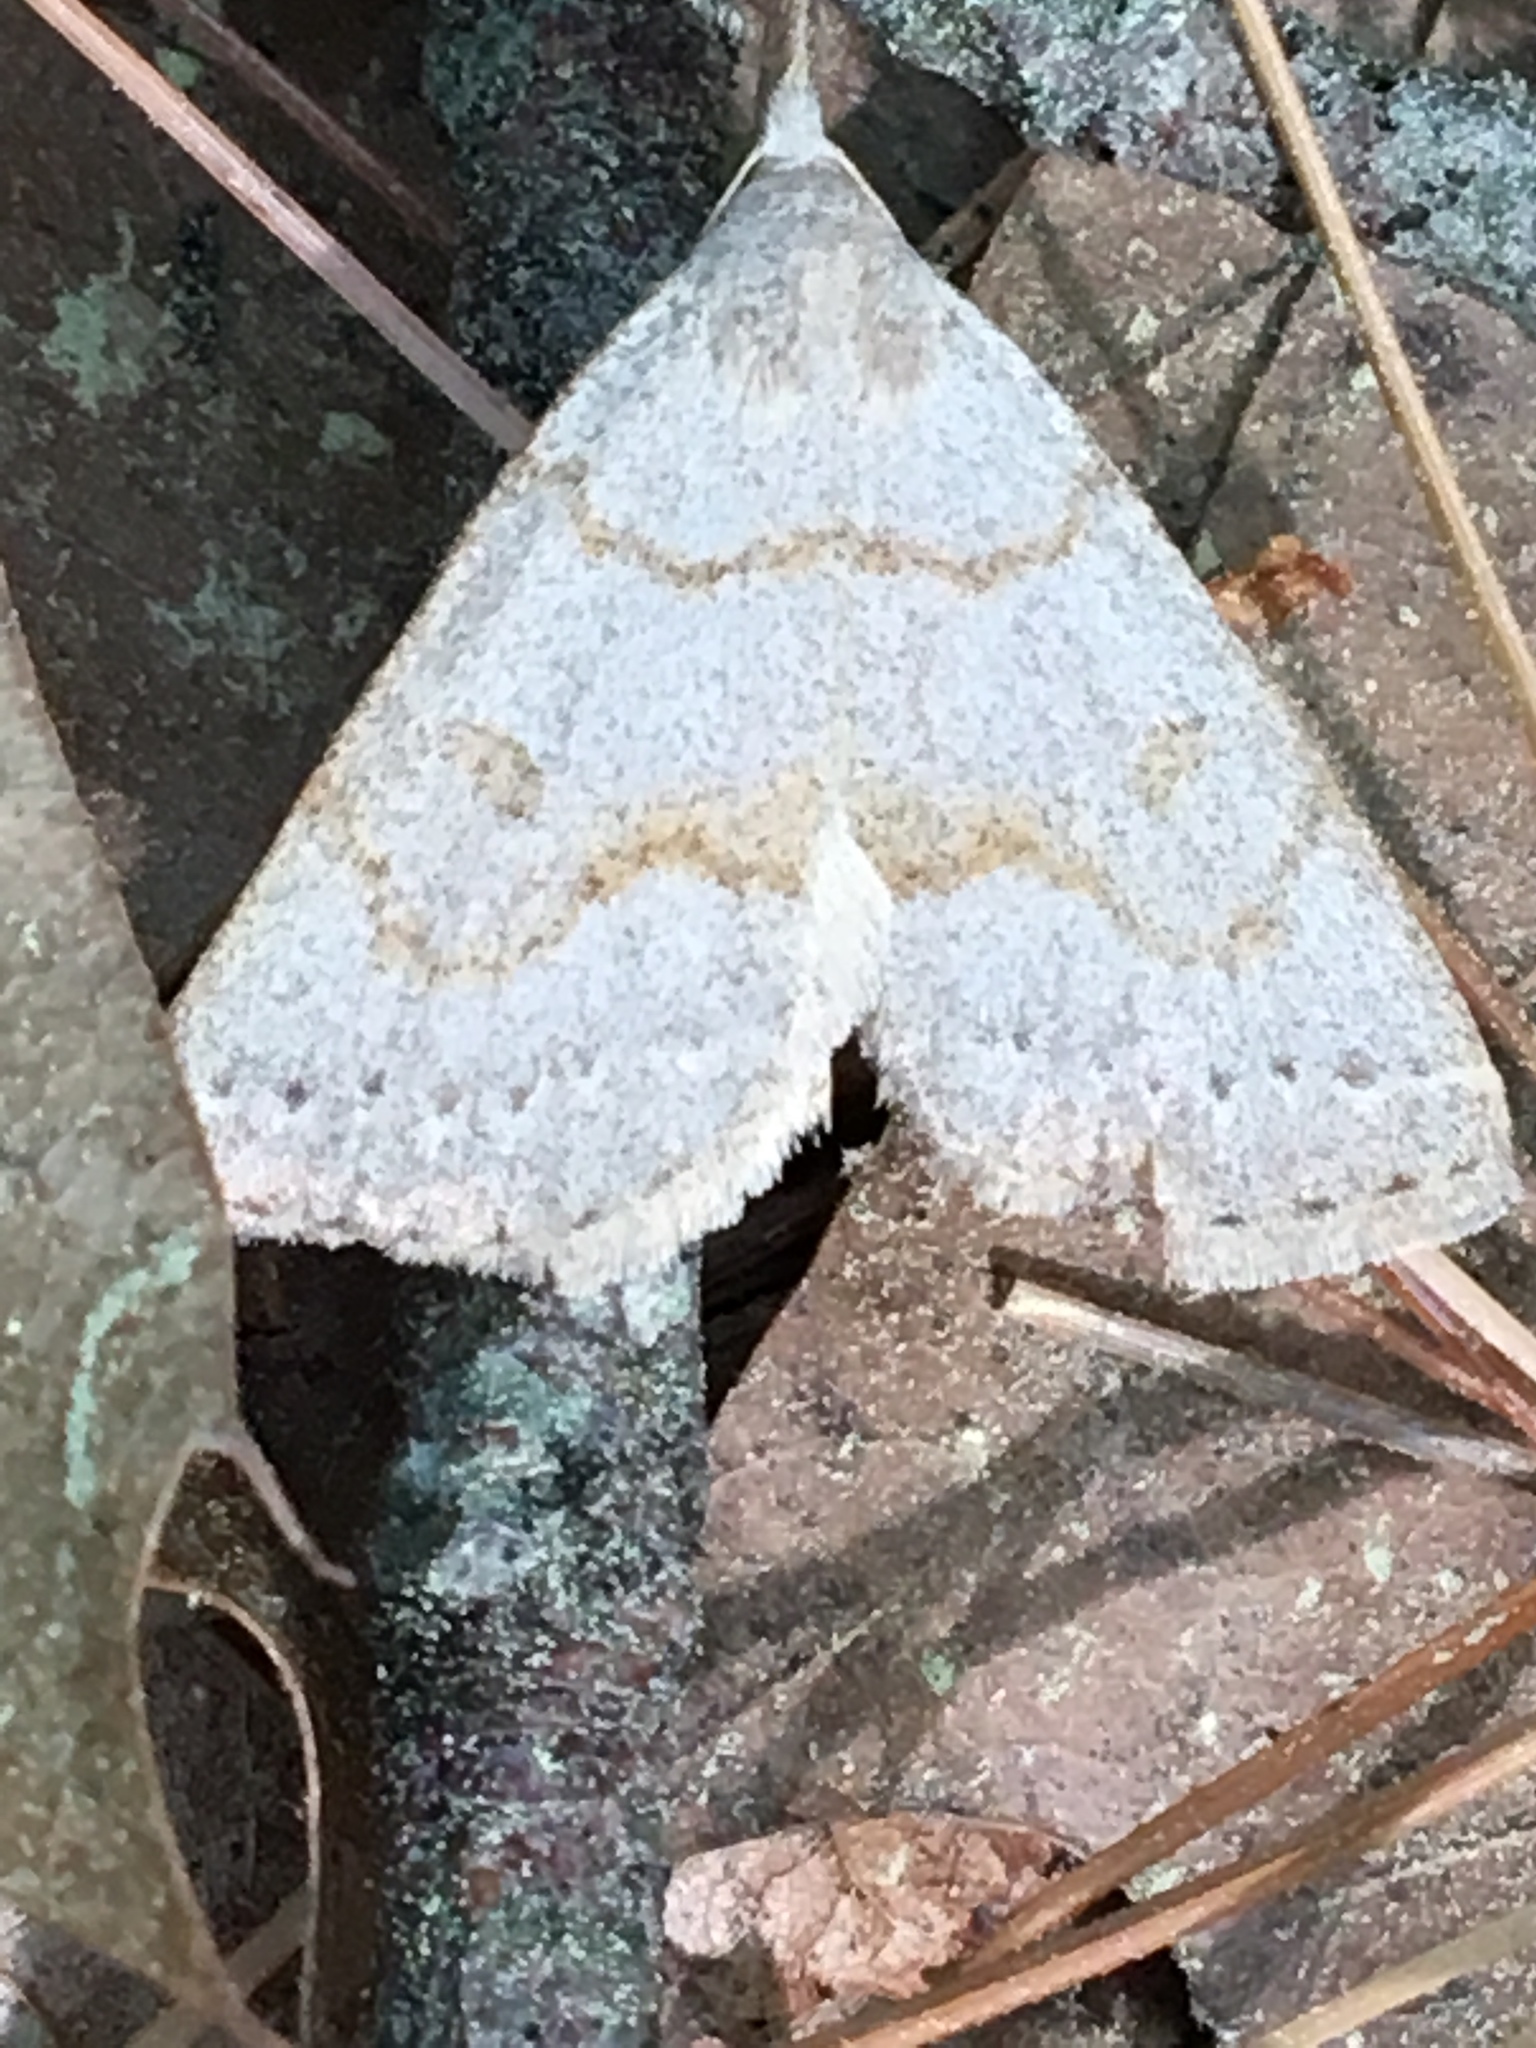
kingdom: Animalia
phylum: Arthropoda
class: Insecta
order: Lepidoptera
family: Erebidae
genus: Macrochilo
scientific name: Macrochilo morbidalis
